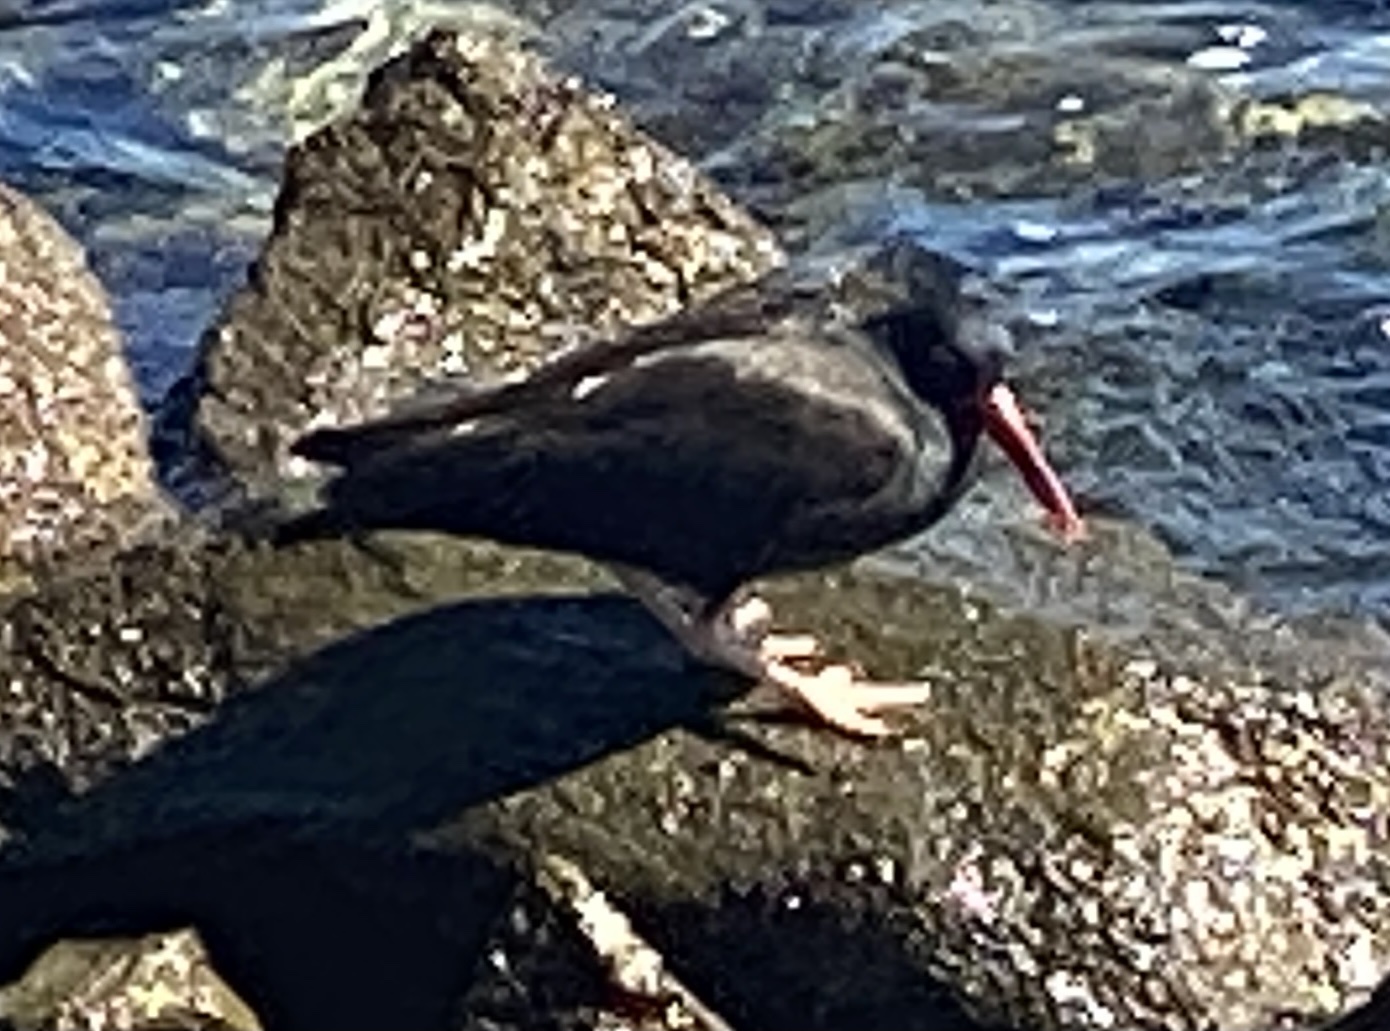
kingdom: Animalia
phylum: Chordata
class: Aves
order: Charadriiformes
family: Haematopodidae
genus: Haematopus
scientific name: Haematopus bachmani
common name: Black oystercatcher
